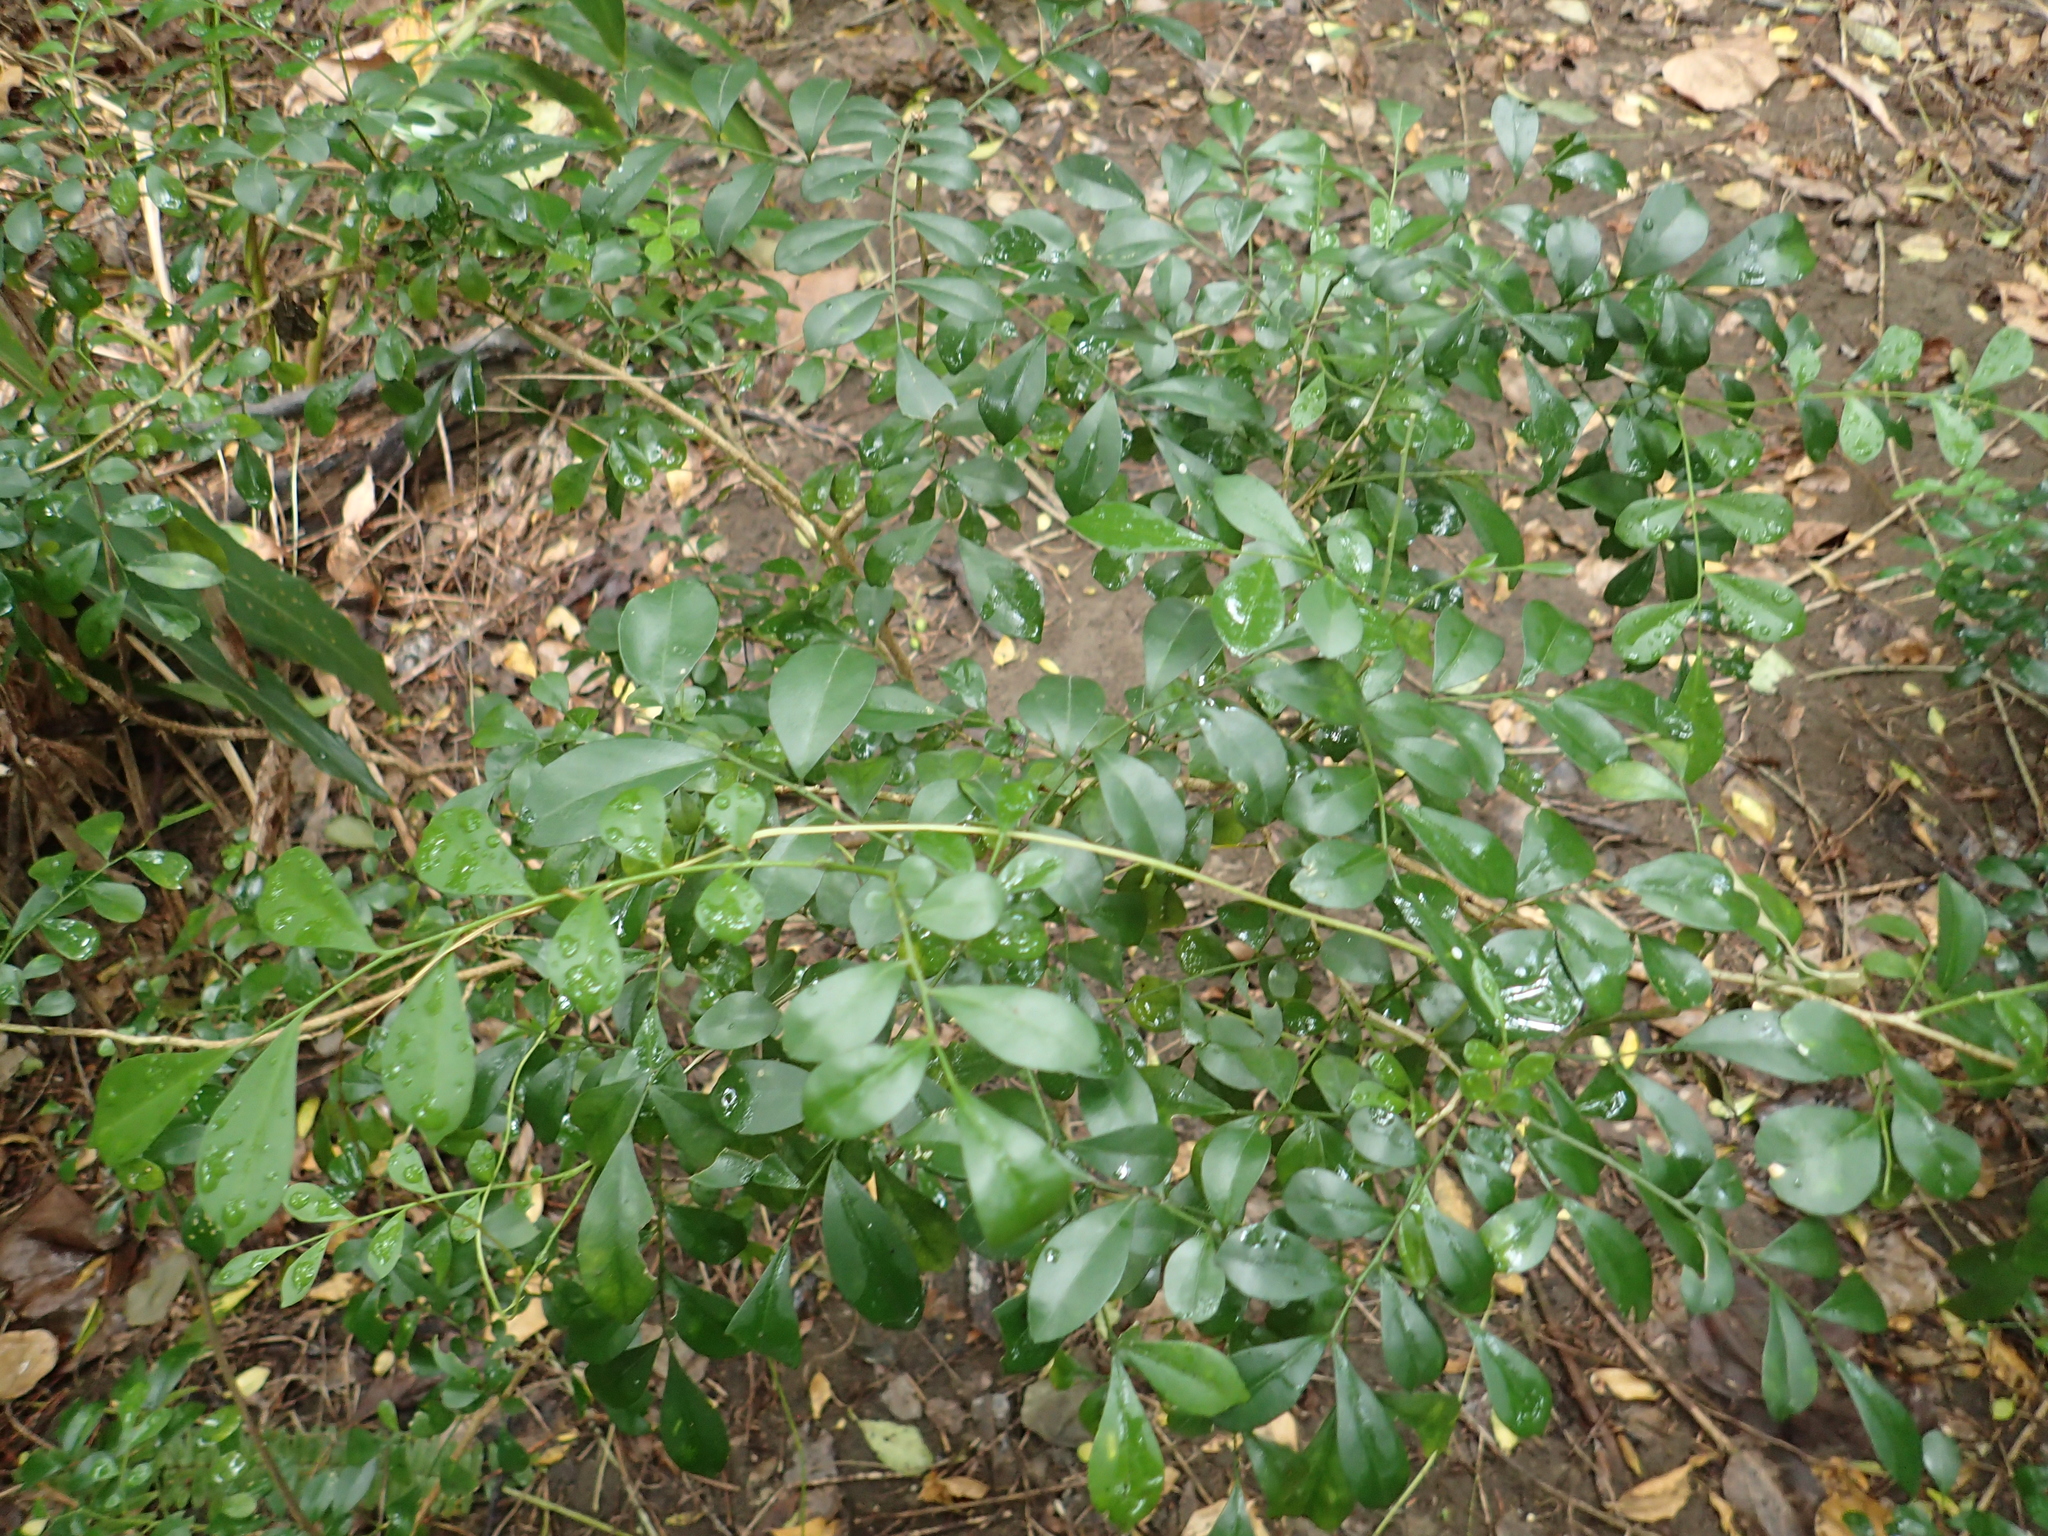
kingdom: Plantae
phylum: Tracheophyta
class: Magnoliopsida
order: Sapindales
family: Rutaceae
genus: Murraya
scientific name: Murraya paniculata
